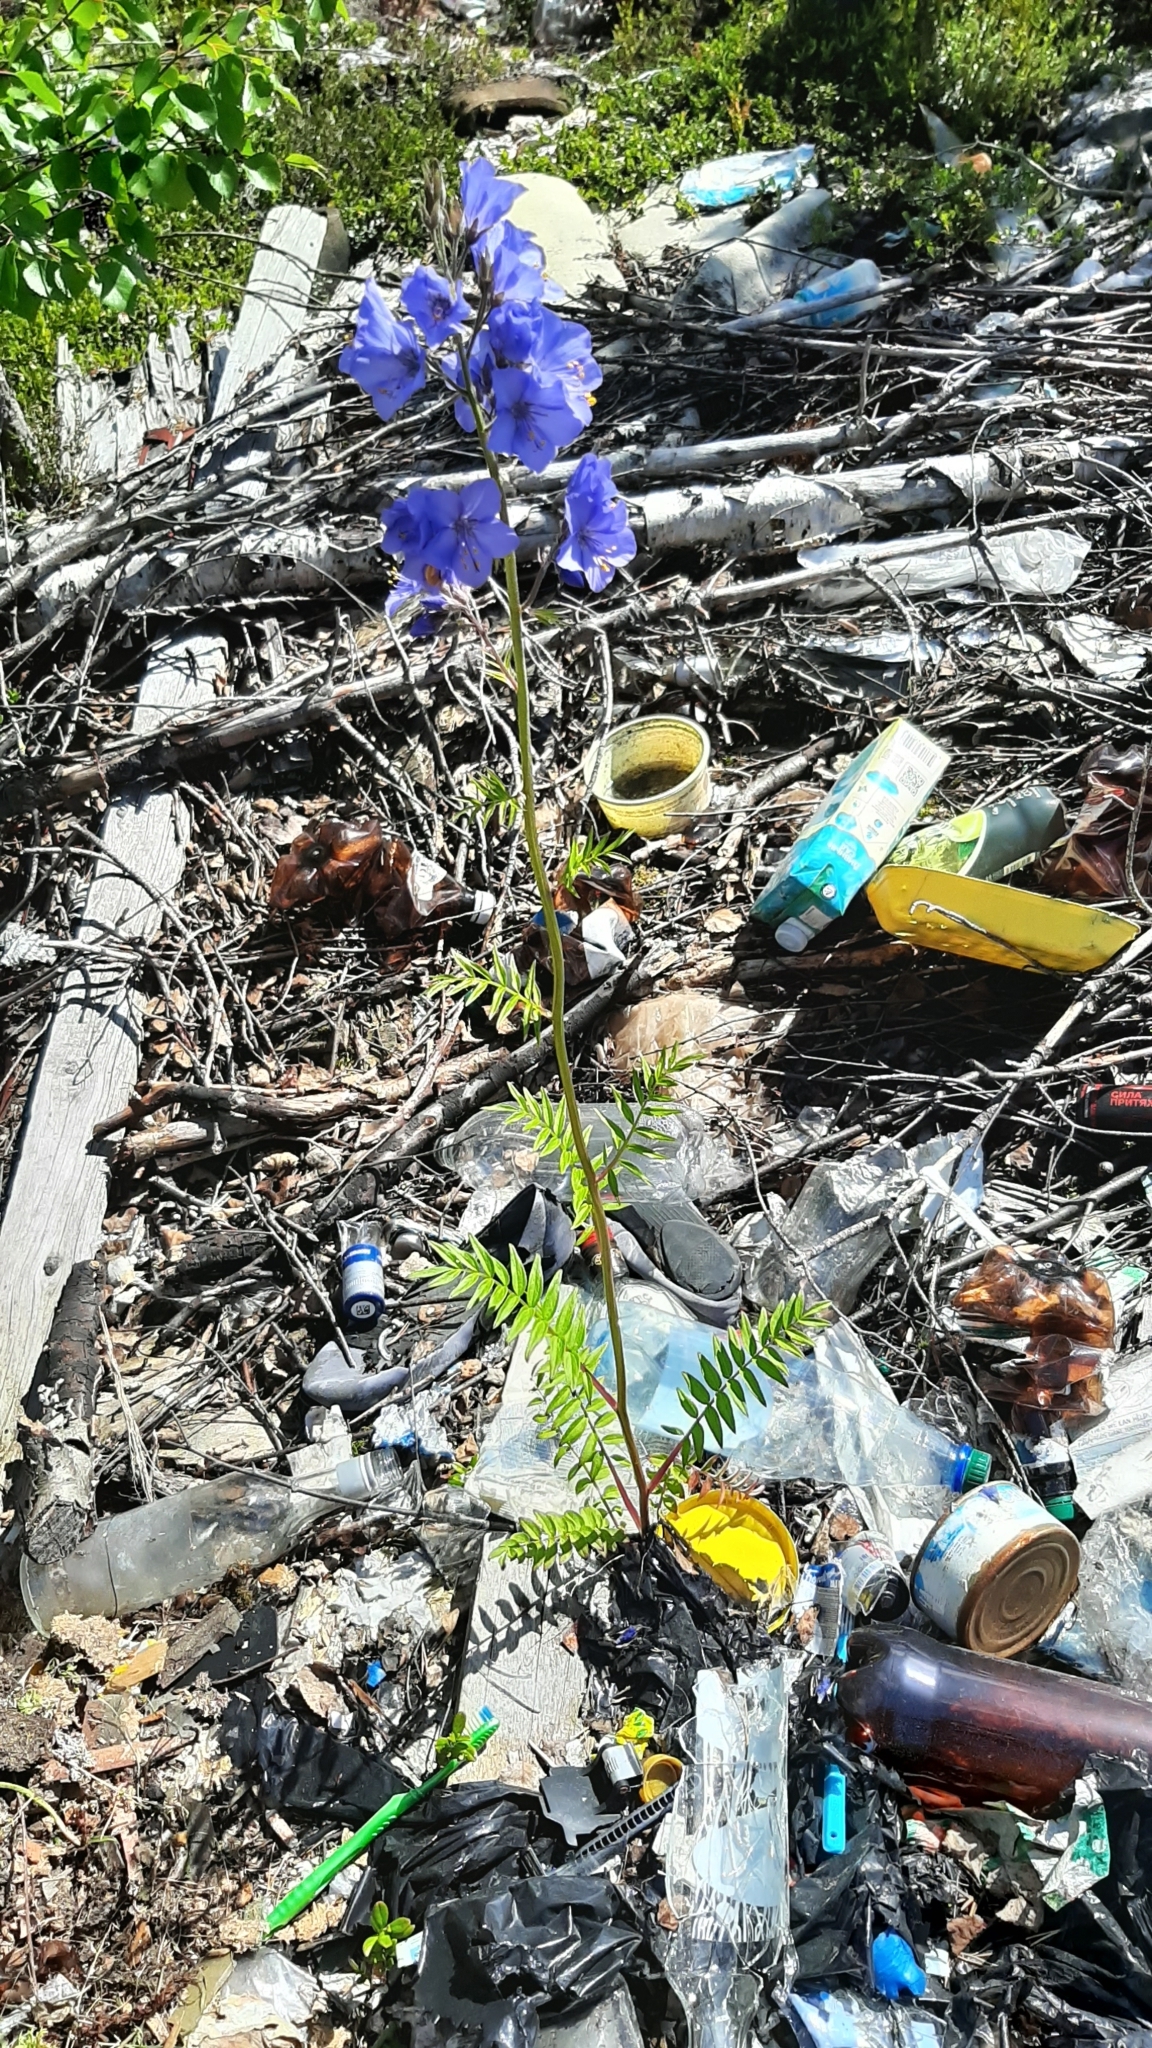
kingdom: Plantae
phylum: Tracheophyta
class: Magnoliopsida
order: Ericales
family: Polemoniaceae
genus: Polemonium
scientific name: Polemonium caeruleum
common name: Jacob's-ladder
